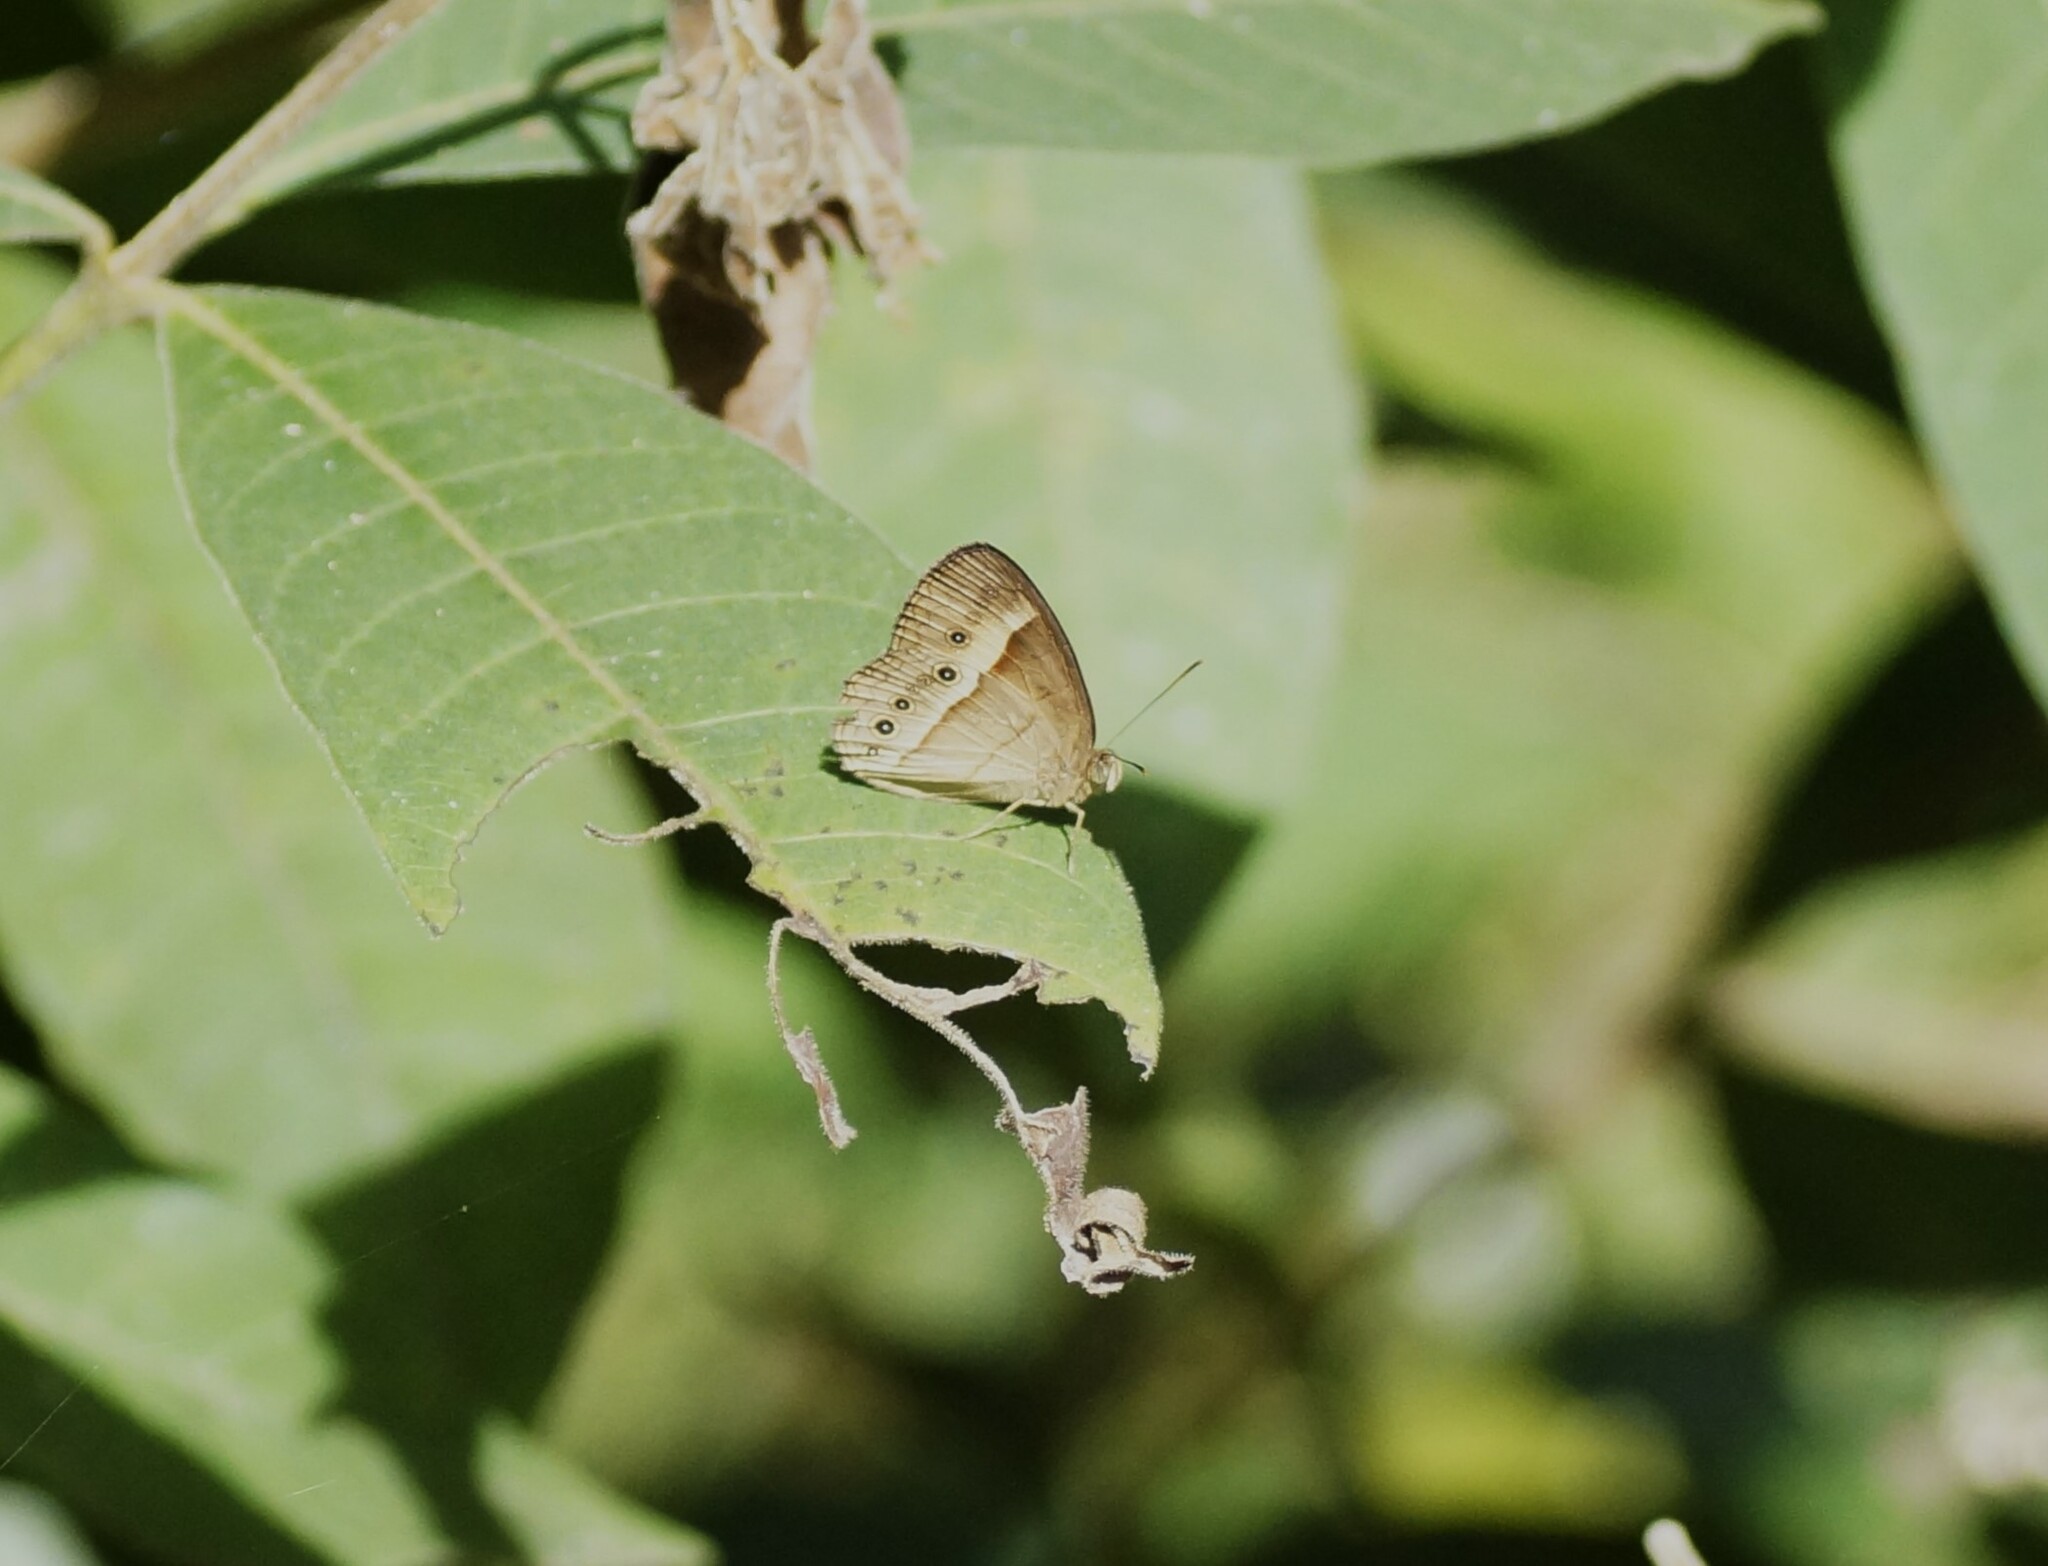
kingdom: Animalia
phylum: Arthropoda
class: Insecta
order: Lepidoptera
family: Nymphalidae
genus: Mycalesis
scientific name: Mycalesis terminus
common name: Orange bushbrown
